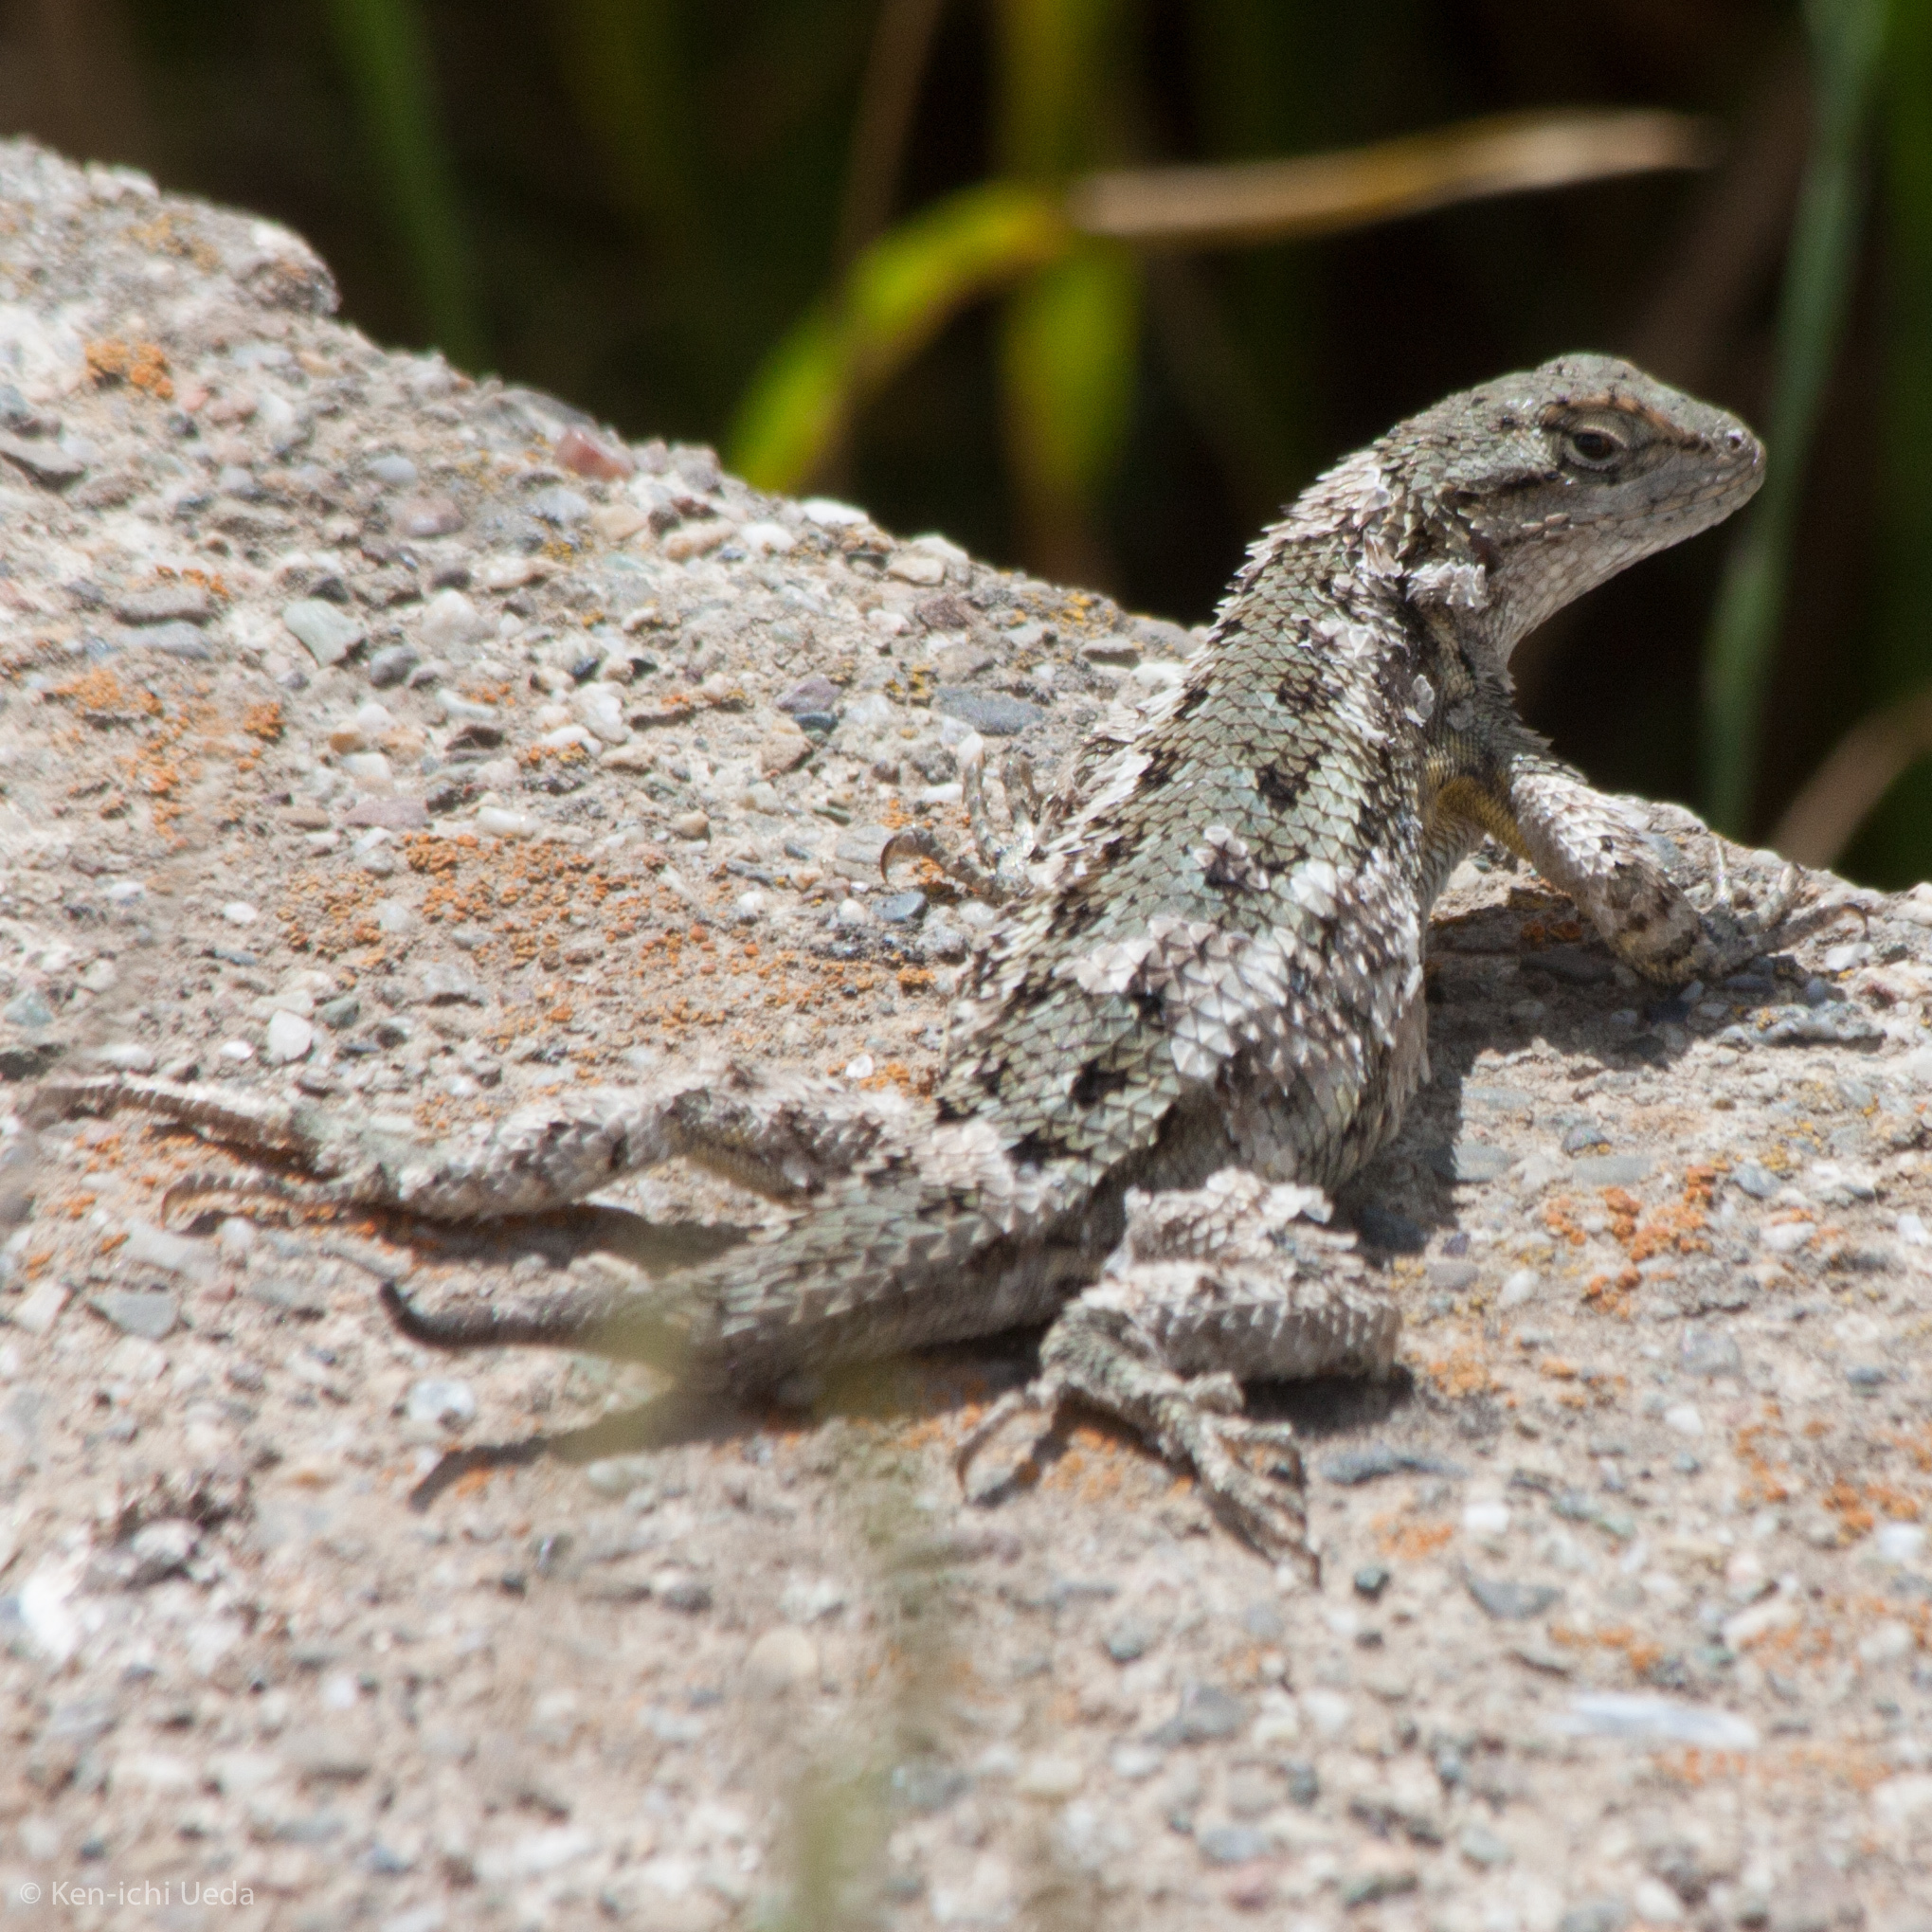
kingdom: Animalia
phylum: Chordata
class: Squamata
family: Phrynosomatidae
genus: Sceloporus
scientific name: Sceloporus occidentalis
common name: Western fence lizard
